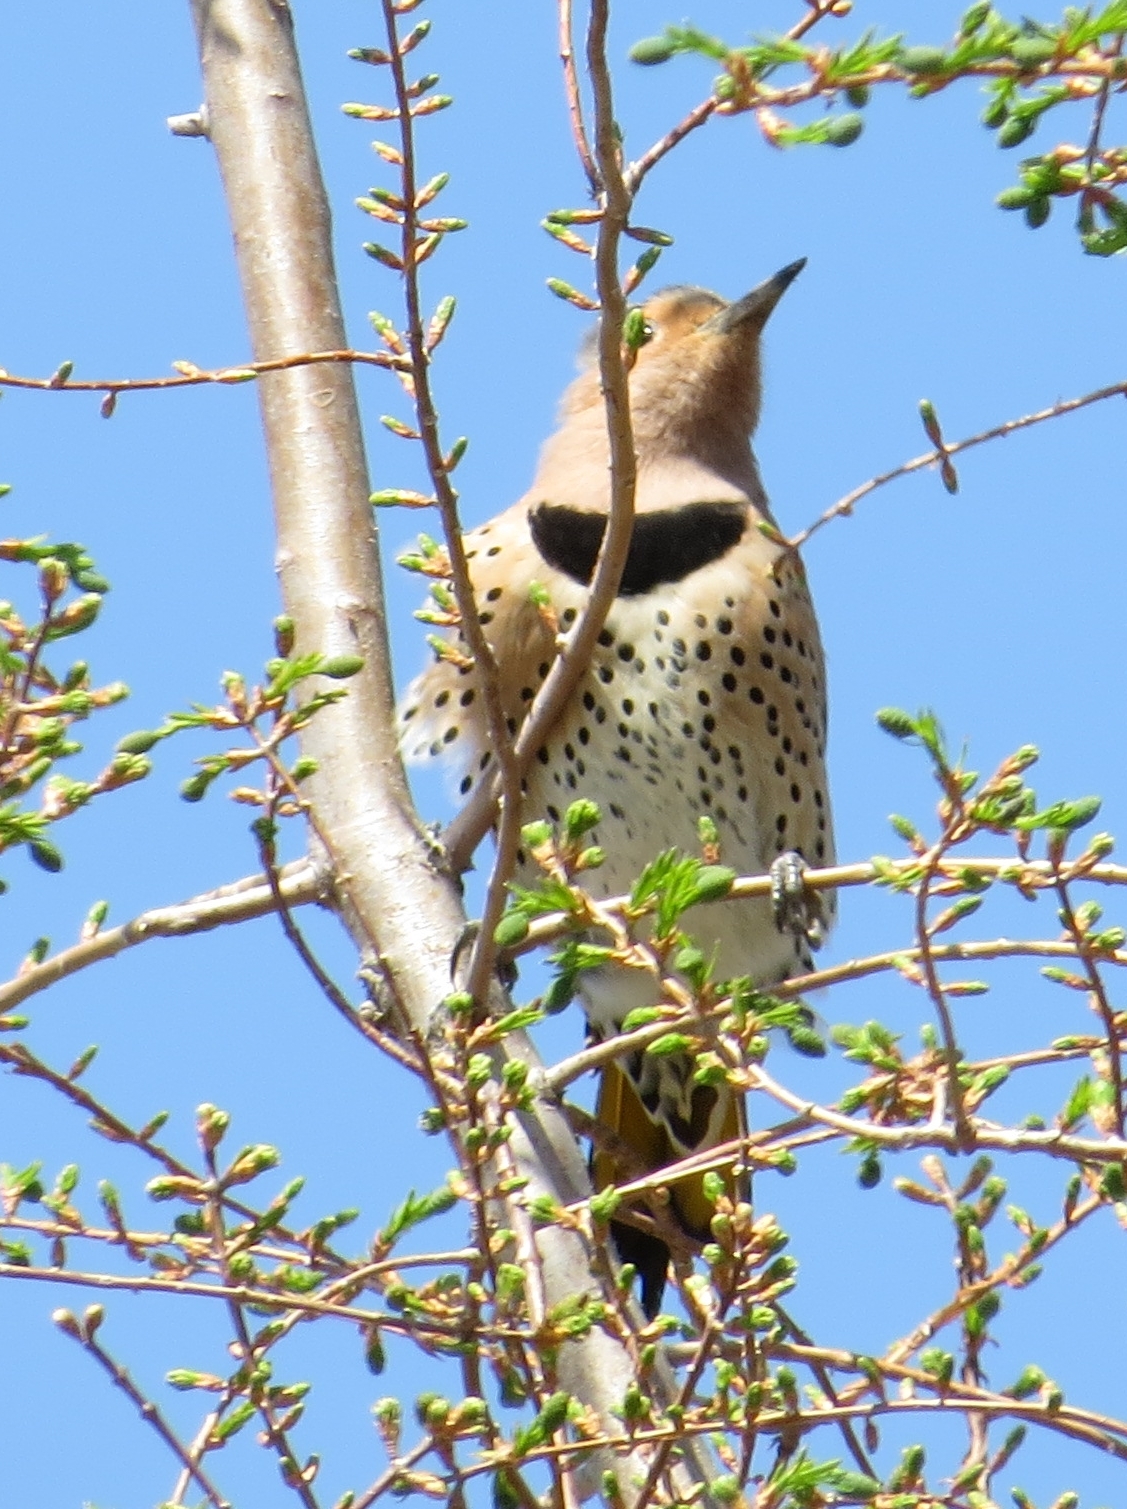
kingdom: Animalia
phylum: Chordata
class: Aves
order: Piciformes
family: Picidae
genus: Colaptes
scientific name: Colaptes auratus
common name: Northern flicker
